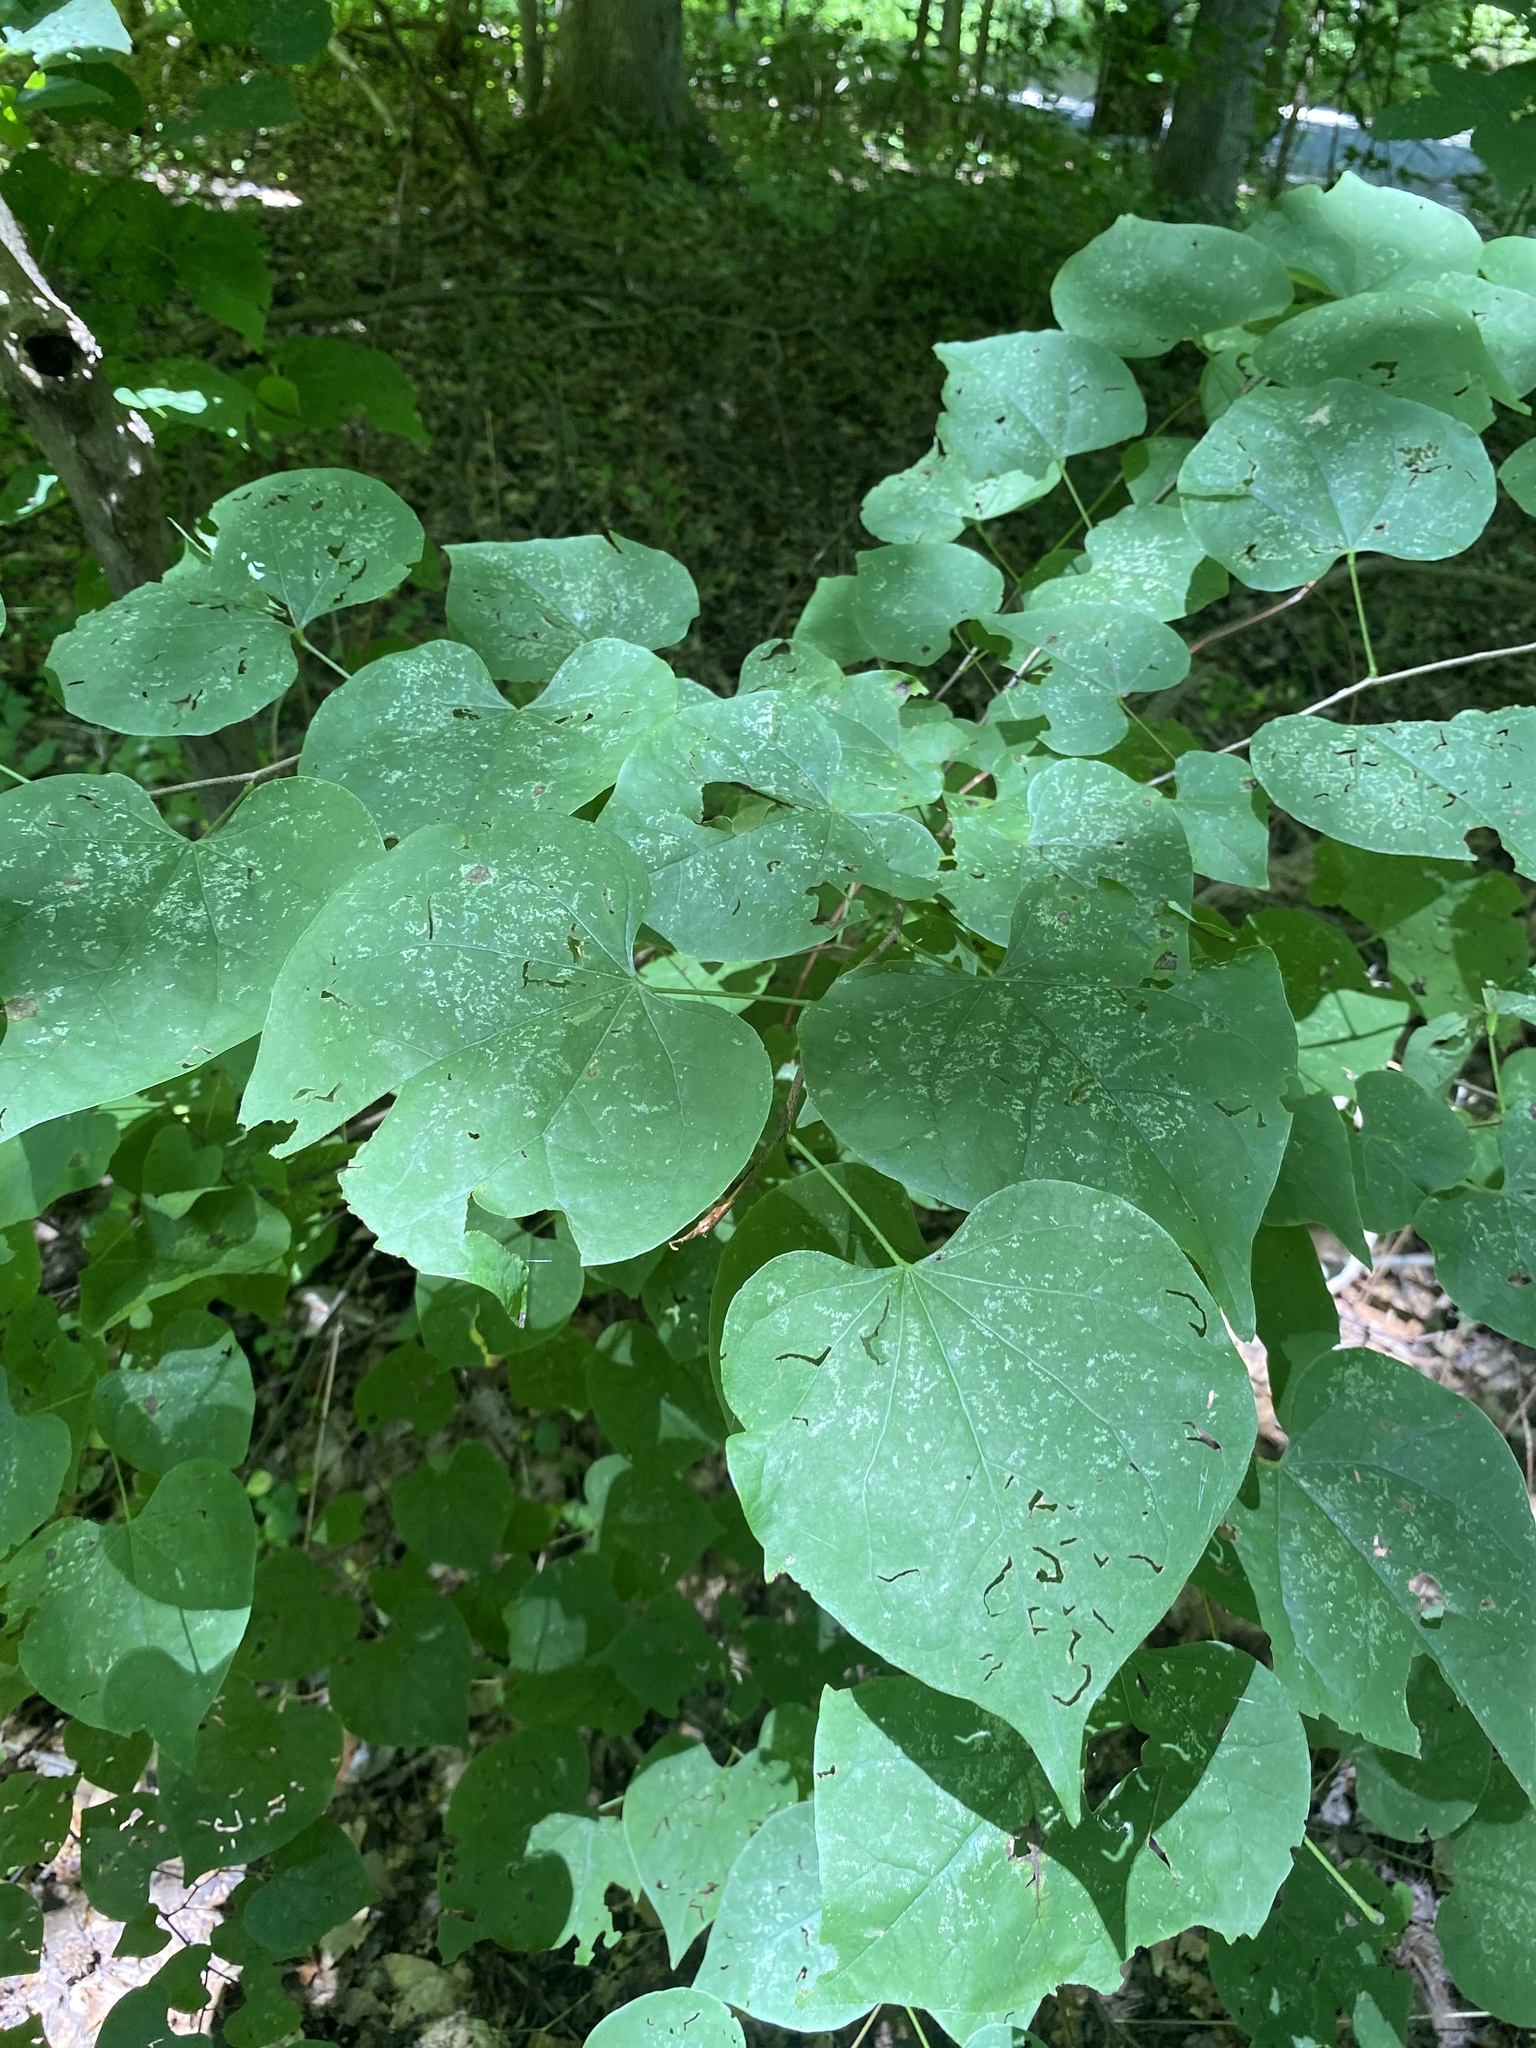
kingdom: Plantae
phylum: Tracheophyta
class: Magnoliopsida
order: Fabales
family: Fabaceae
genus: Cercis
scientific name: Cercis canadensis
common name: Eastern redbud
